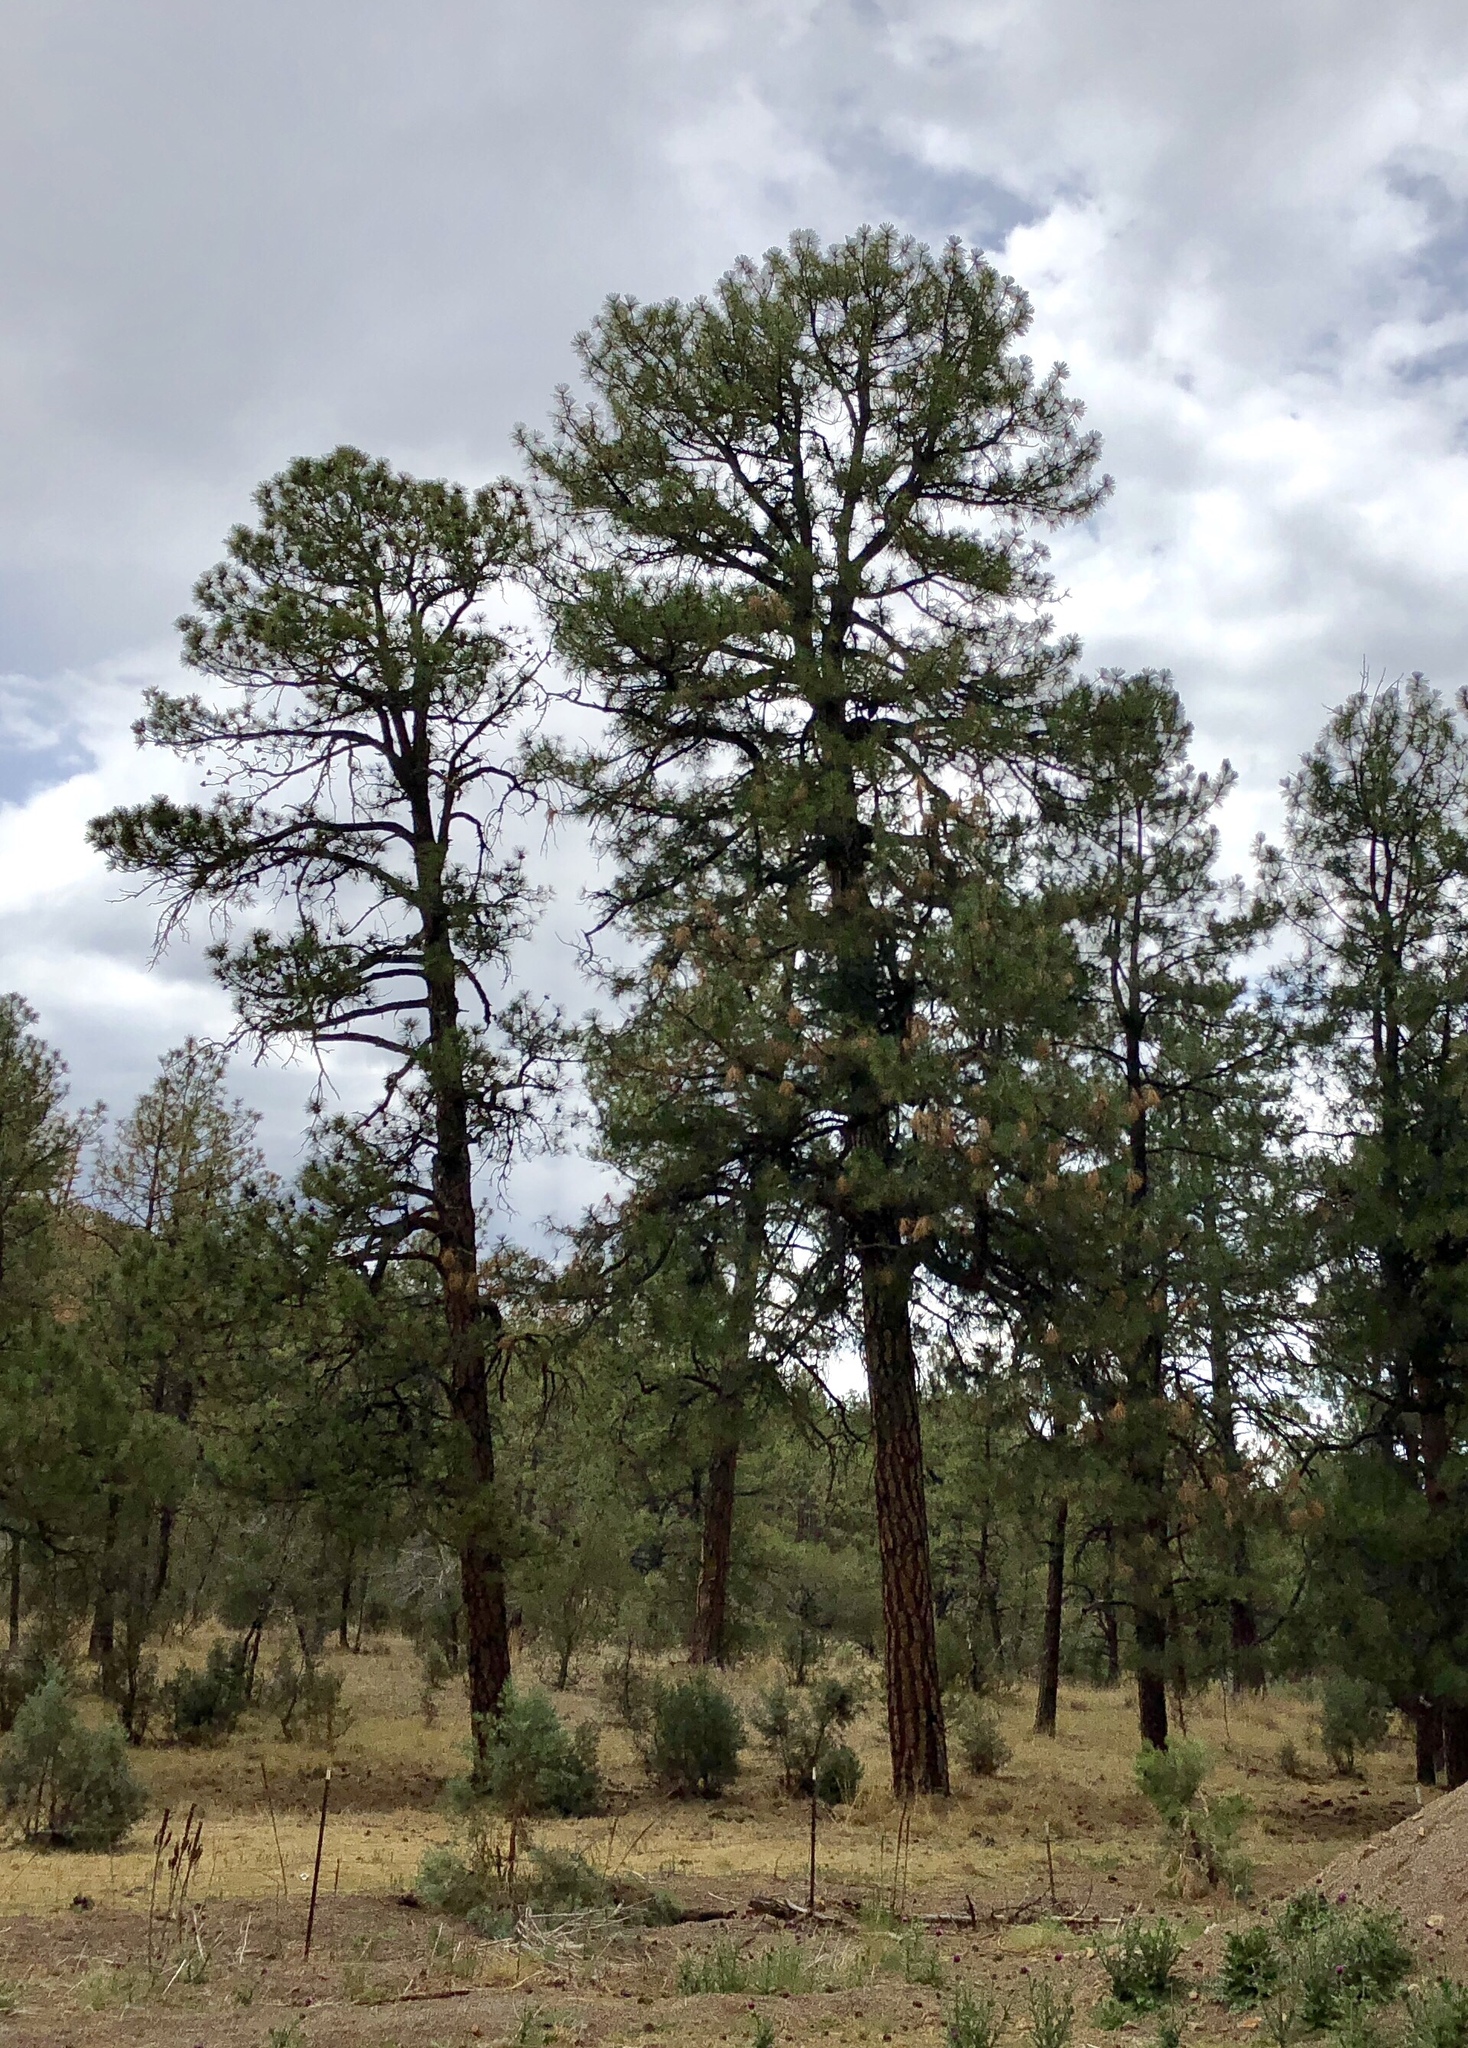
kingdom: Plantae
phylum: Tracheophyta
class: Pinopsida
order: Pinales
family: Pinaceae
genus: Pinus
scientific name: Pinus ponderosa
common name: Western yellow-pine
